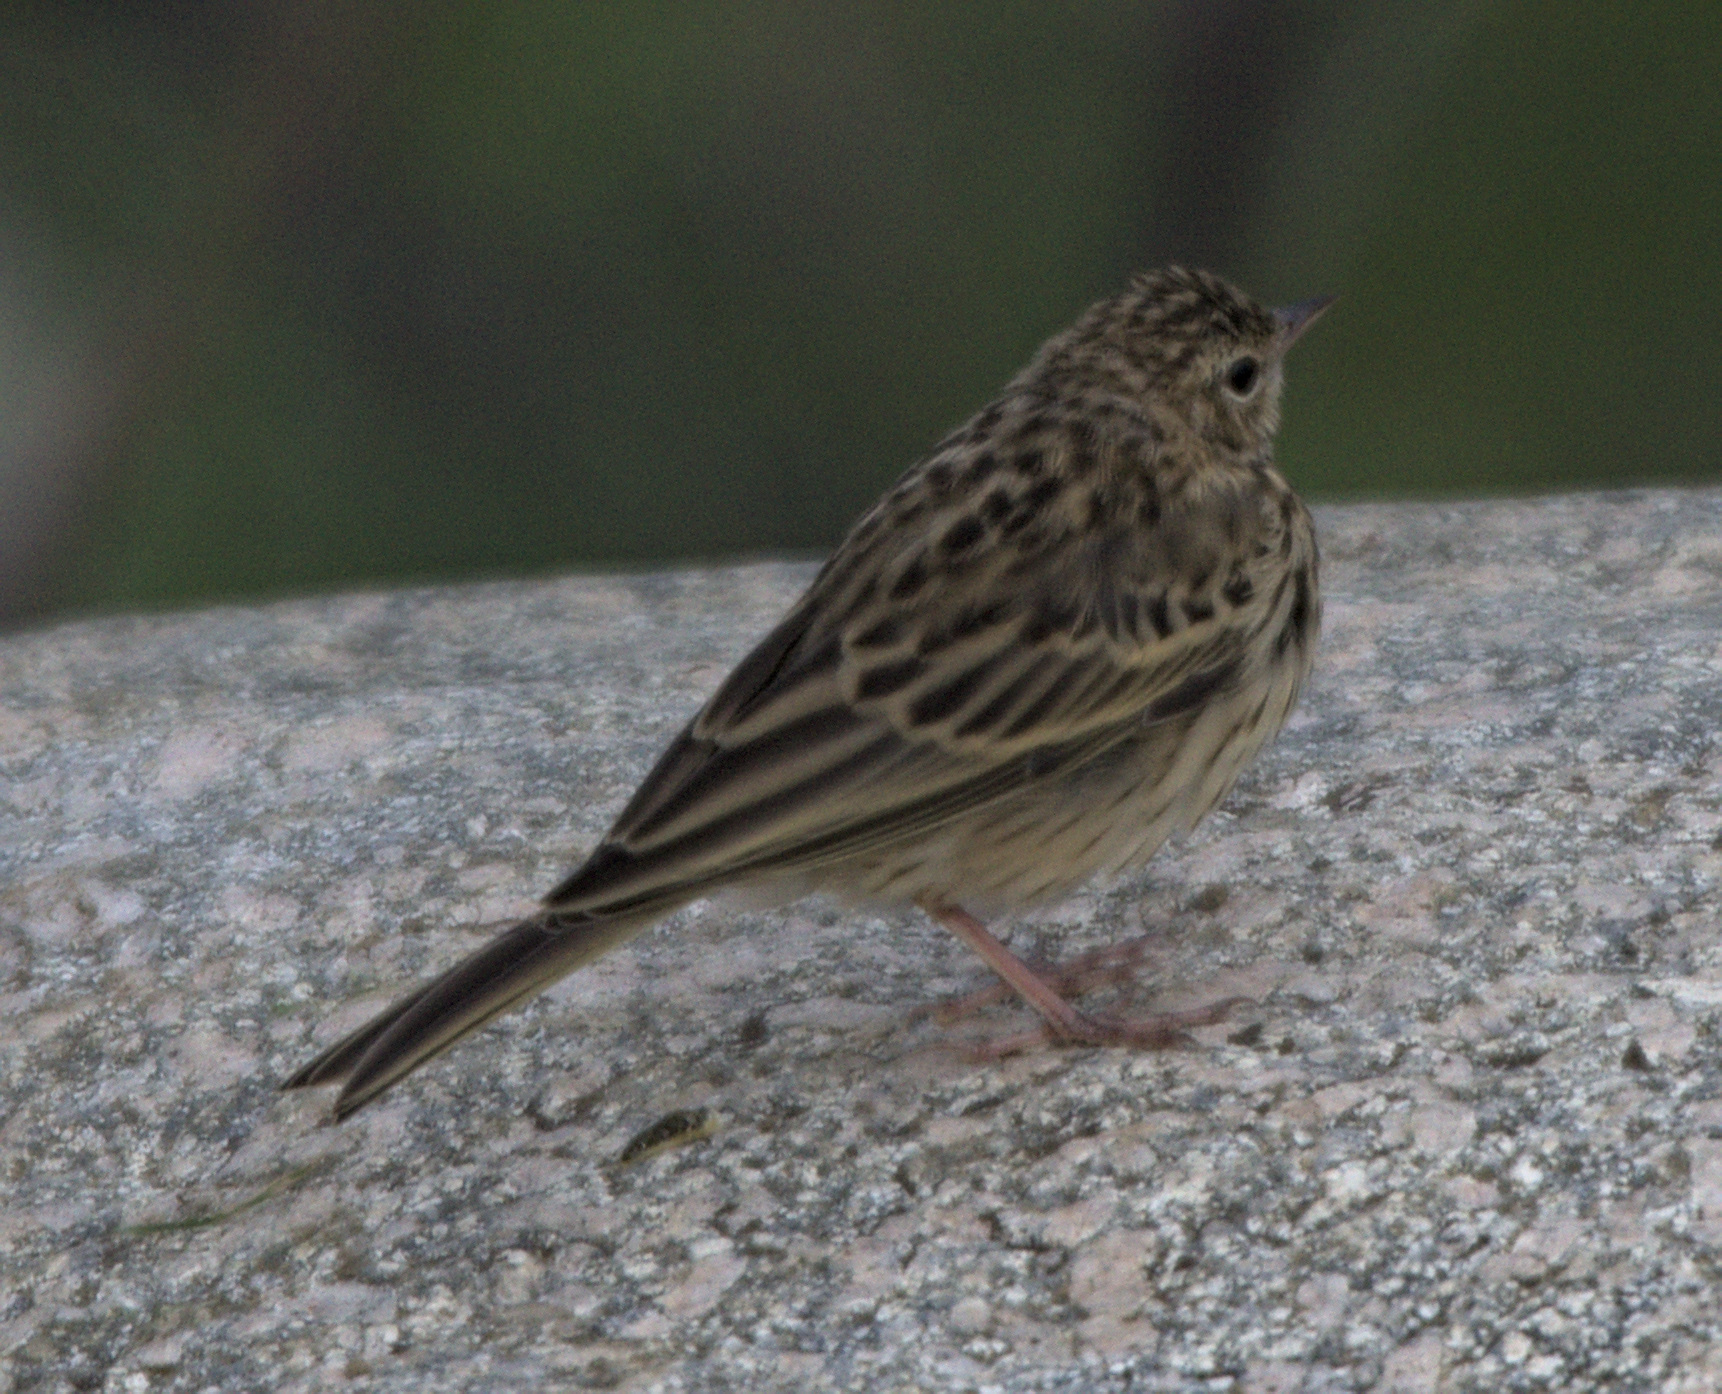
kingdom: Animalia
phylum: Chordata
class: Aves
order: Passeriformes
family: Motacillidae
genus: Anthus
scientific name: Anthus trivialis
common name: Tree pipit
